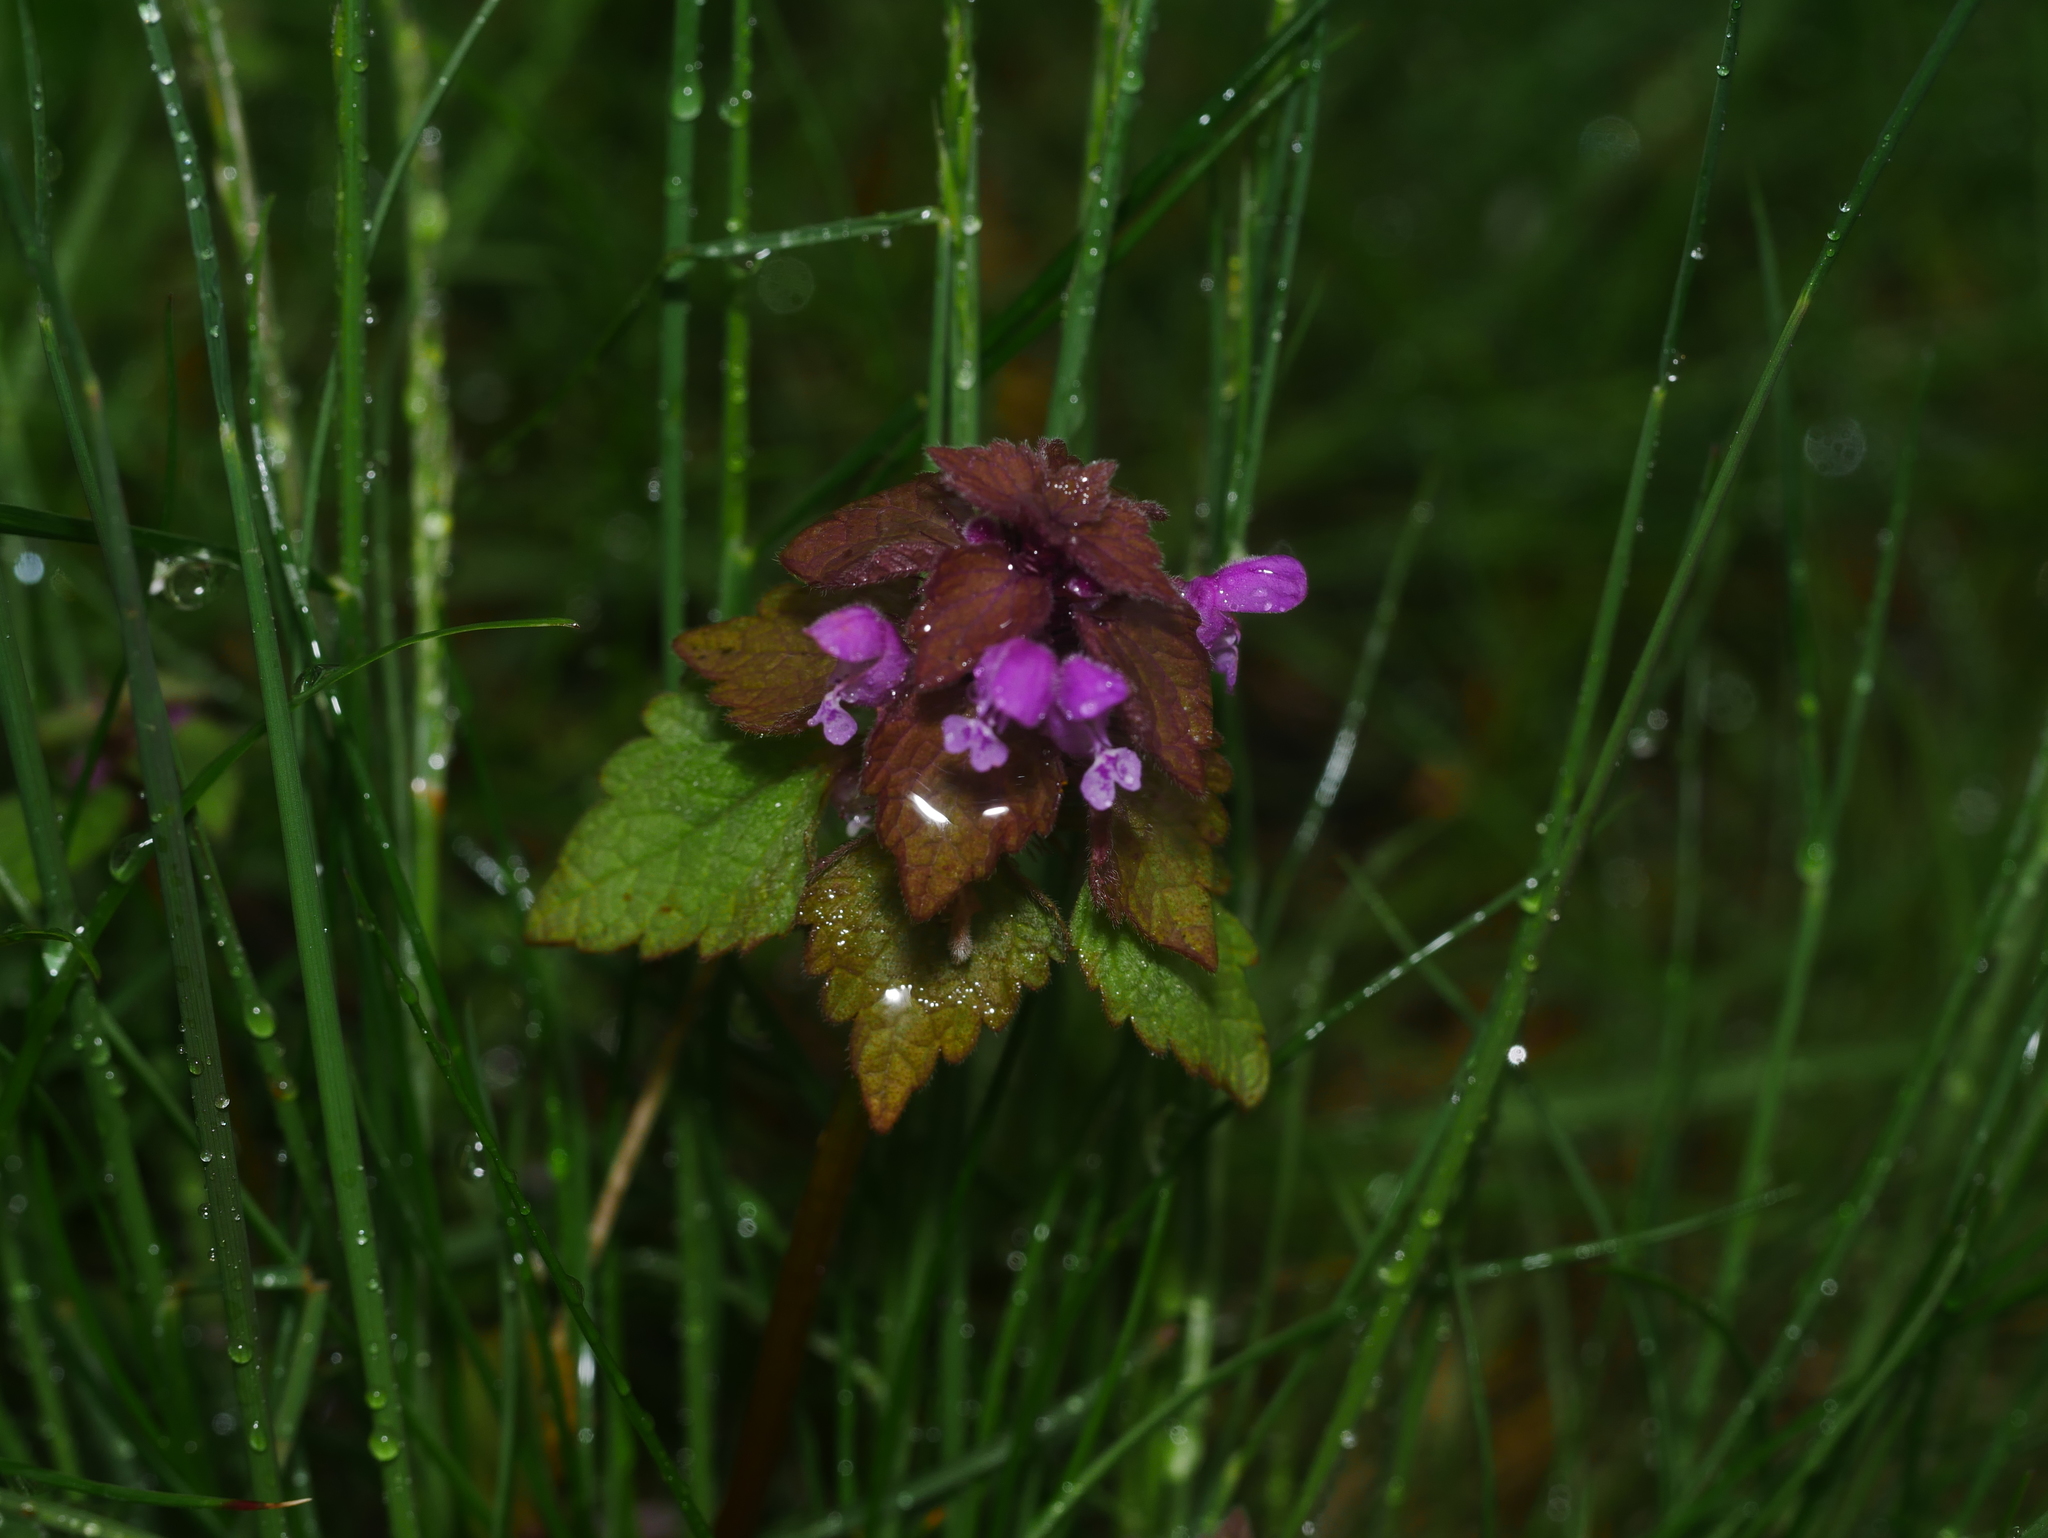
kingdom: Plantae
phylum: Tracheophyta
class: Magnoliopsida
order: Lamiales
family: Lamiaceae
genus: Lamium
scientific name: Lamium purpureum
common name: Red dead-nettle
